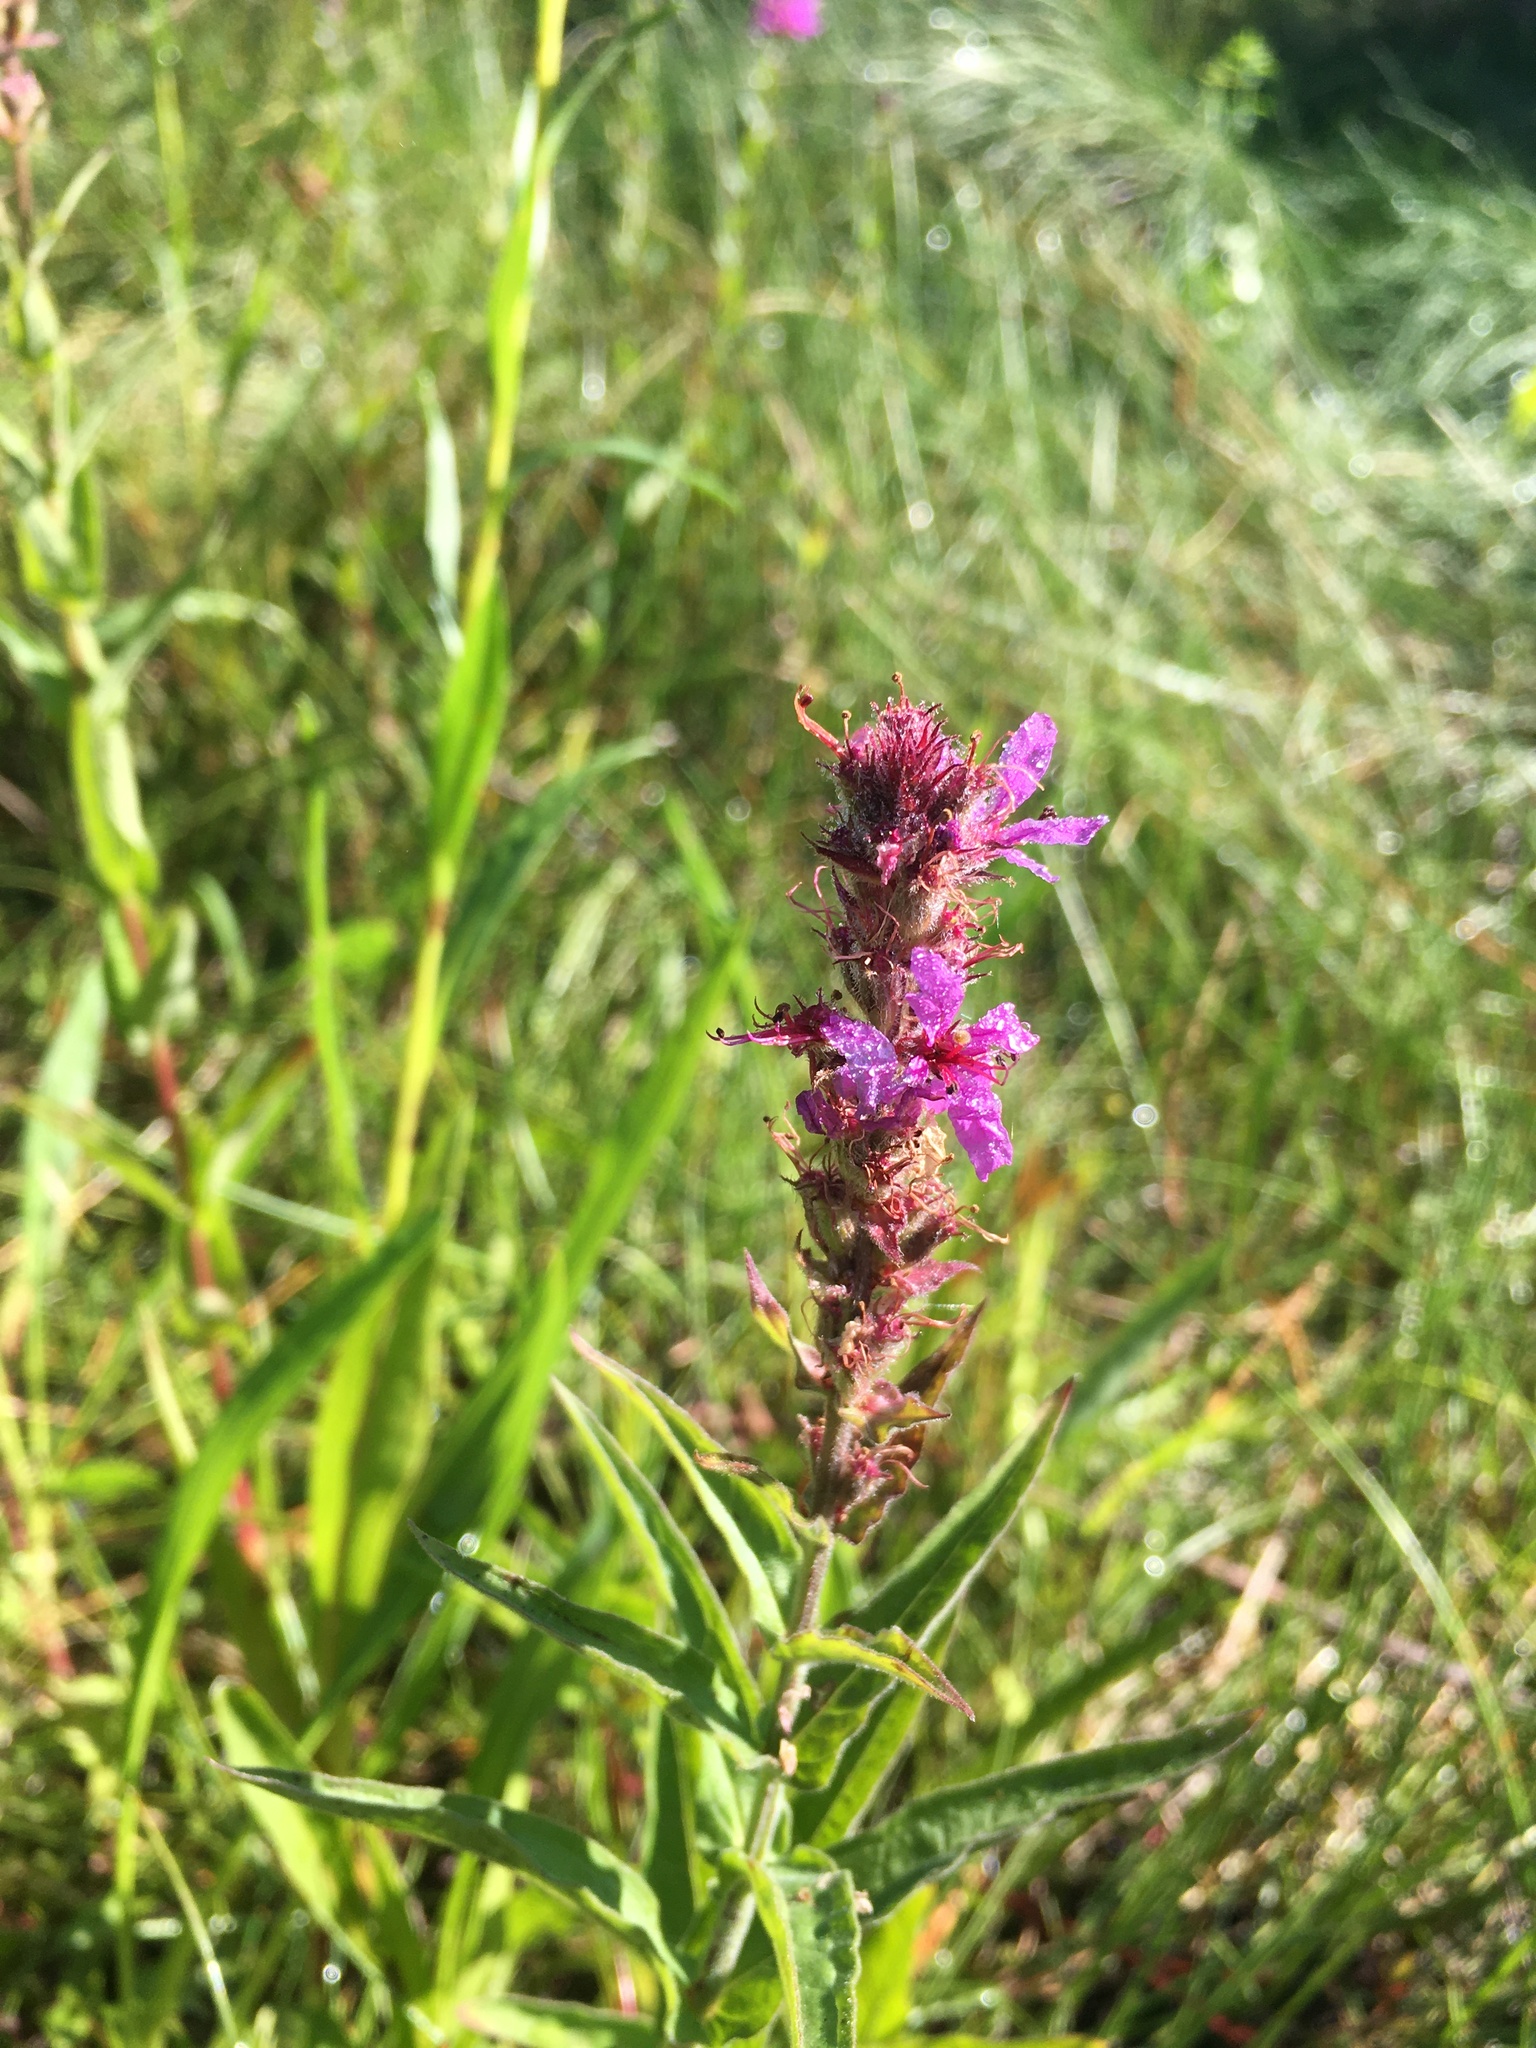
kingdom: Plantae
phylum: Tracheophyta
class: Magnoliopsida
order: Myrtales
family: Lythraceae
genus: Lythrum
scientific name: Lythrum salicaria
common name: Purple loosestrife
